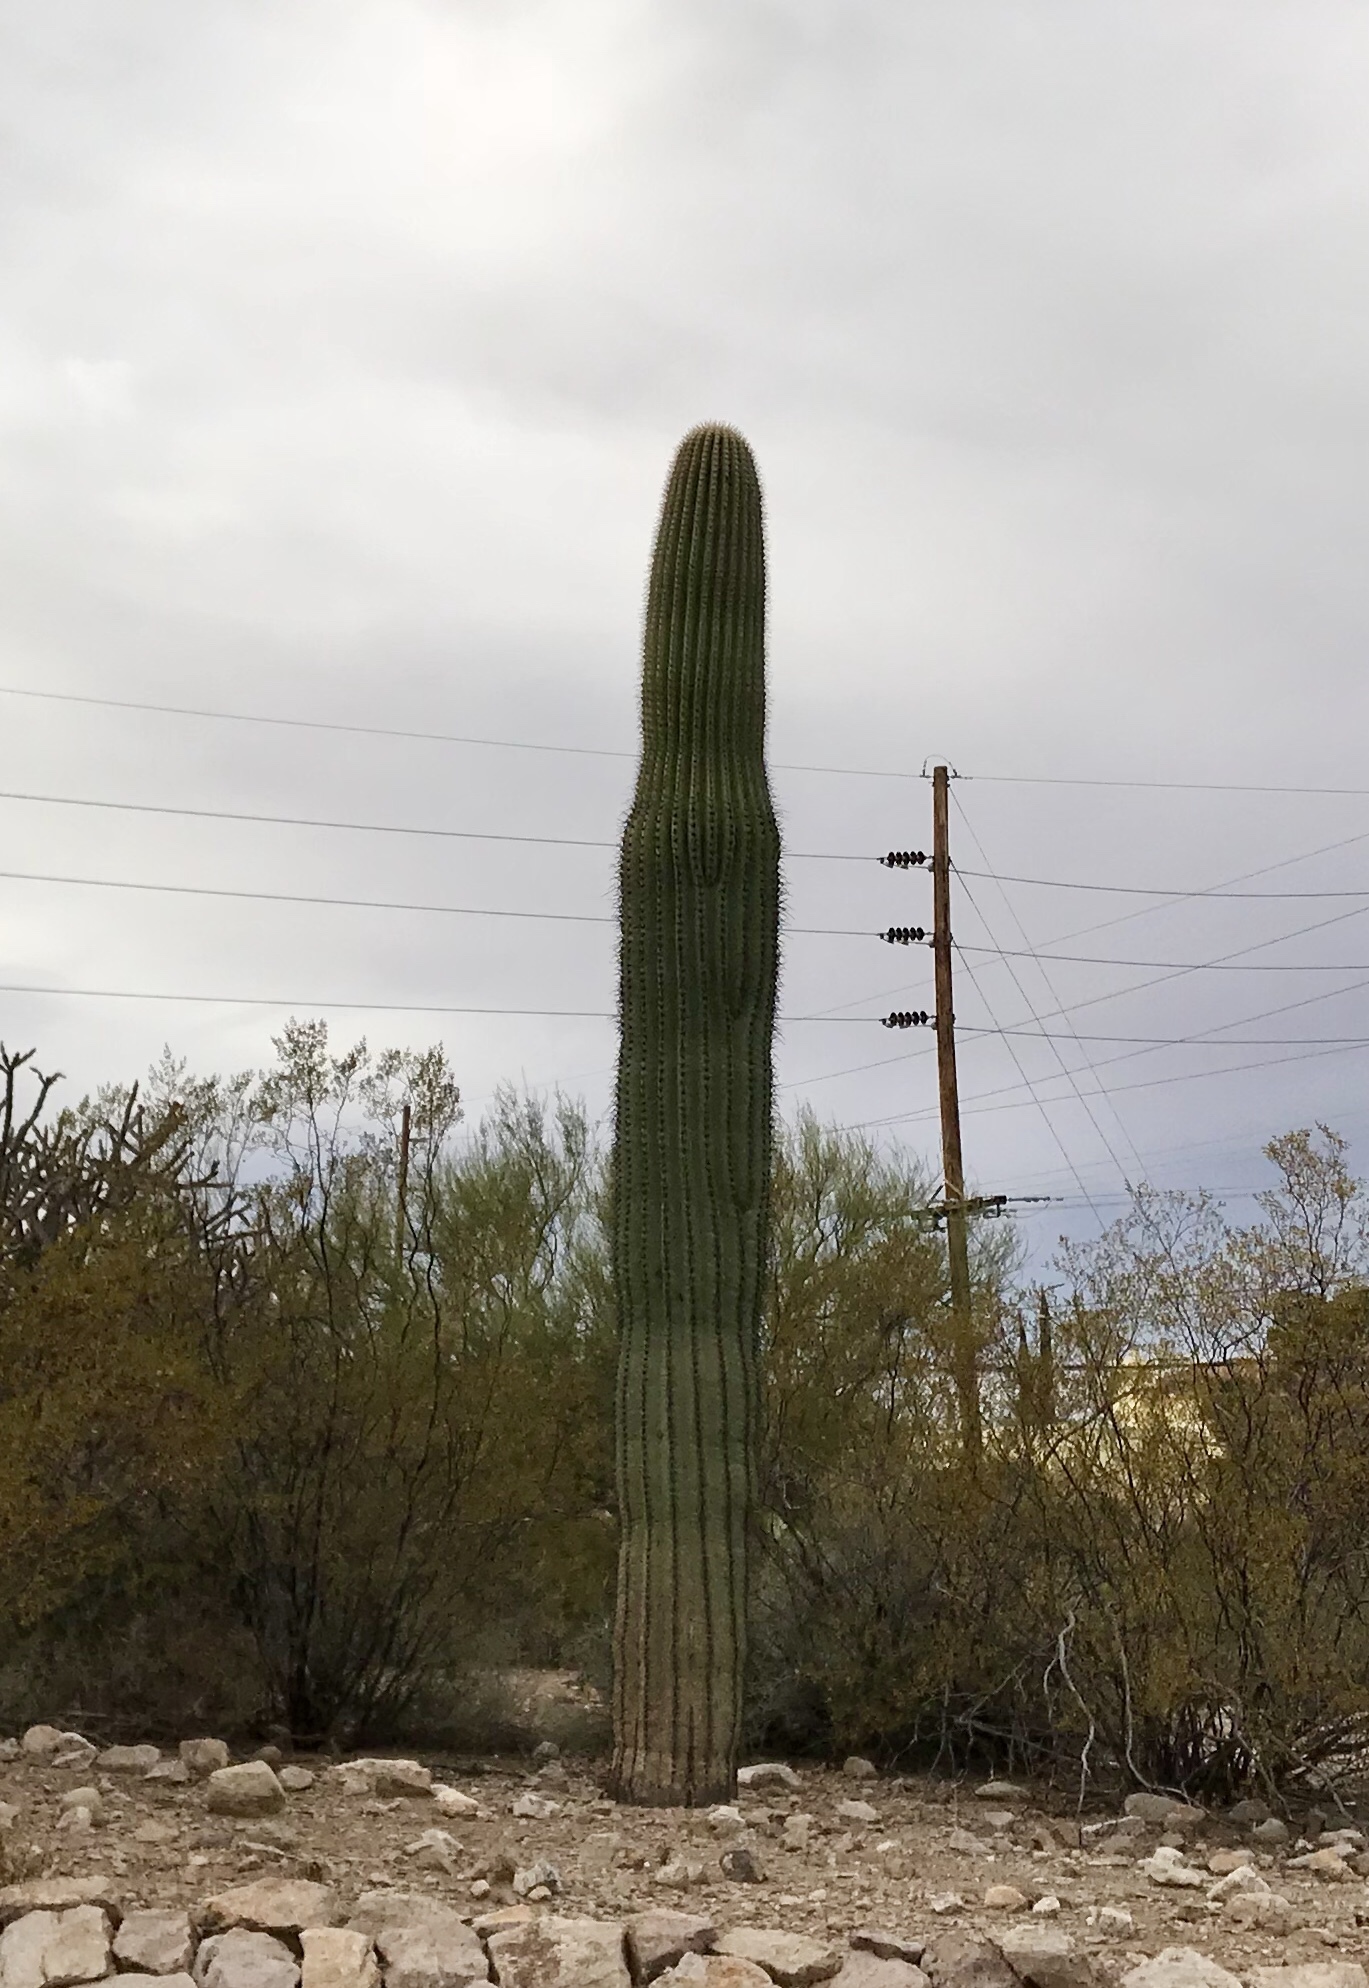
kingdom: Plantae
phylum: Tracheophyta
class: Magnoliopsida
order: Caryophyllales
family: Cactaceae
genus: Carnegiea
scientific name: Carnegiea gigantea
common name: Saguaro
